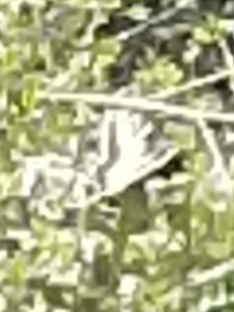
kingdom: Animalia
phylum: Arthropoda
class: Insecta
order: Lepidoptera
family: Papilionidae
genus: Papilio
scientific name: Papilio zelicaon
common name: Anise swallowtail
